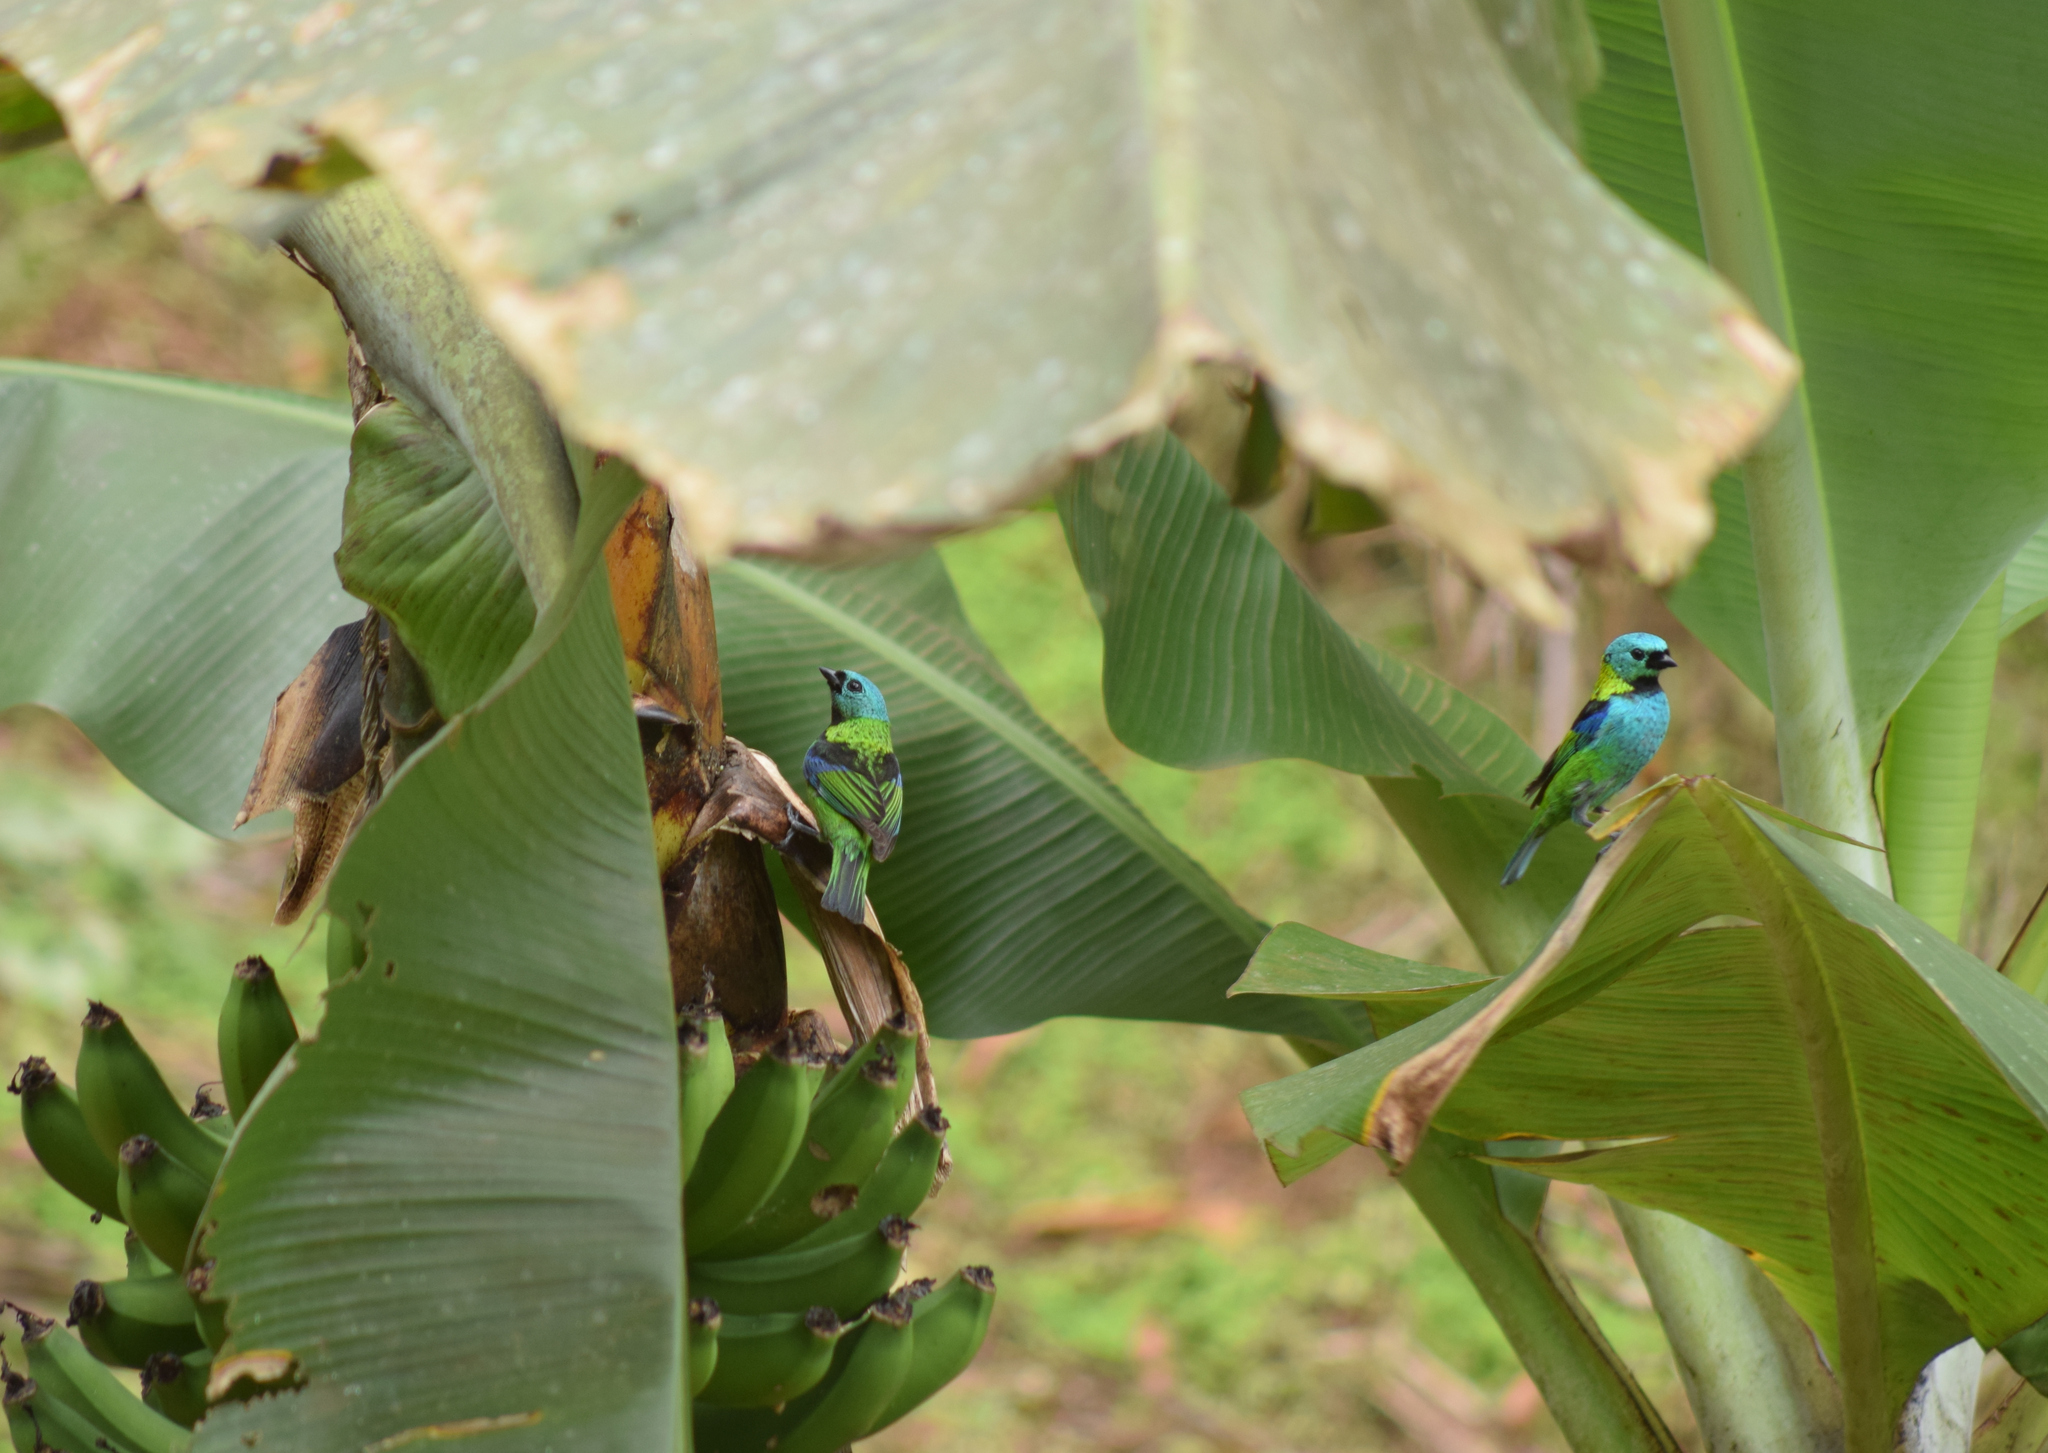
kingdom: Animalia
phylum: Chordata
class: Aves
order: Passeriformes
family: Thraupidae
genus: Tangara
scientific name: Tangara seledon
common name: Green-headed tanager
